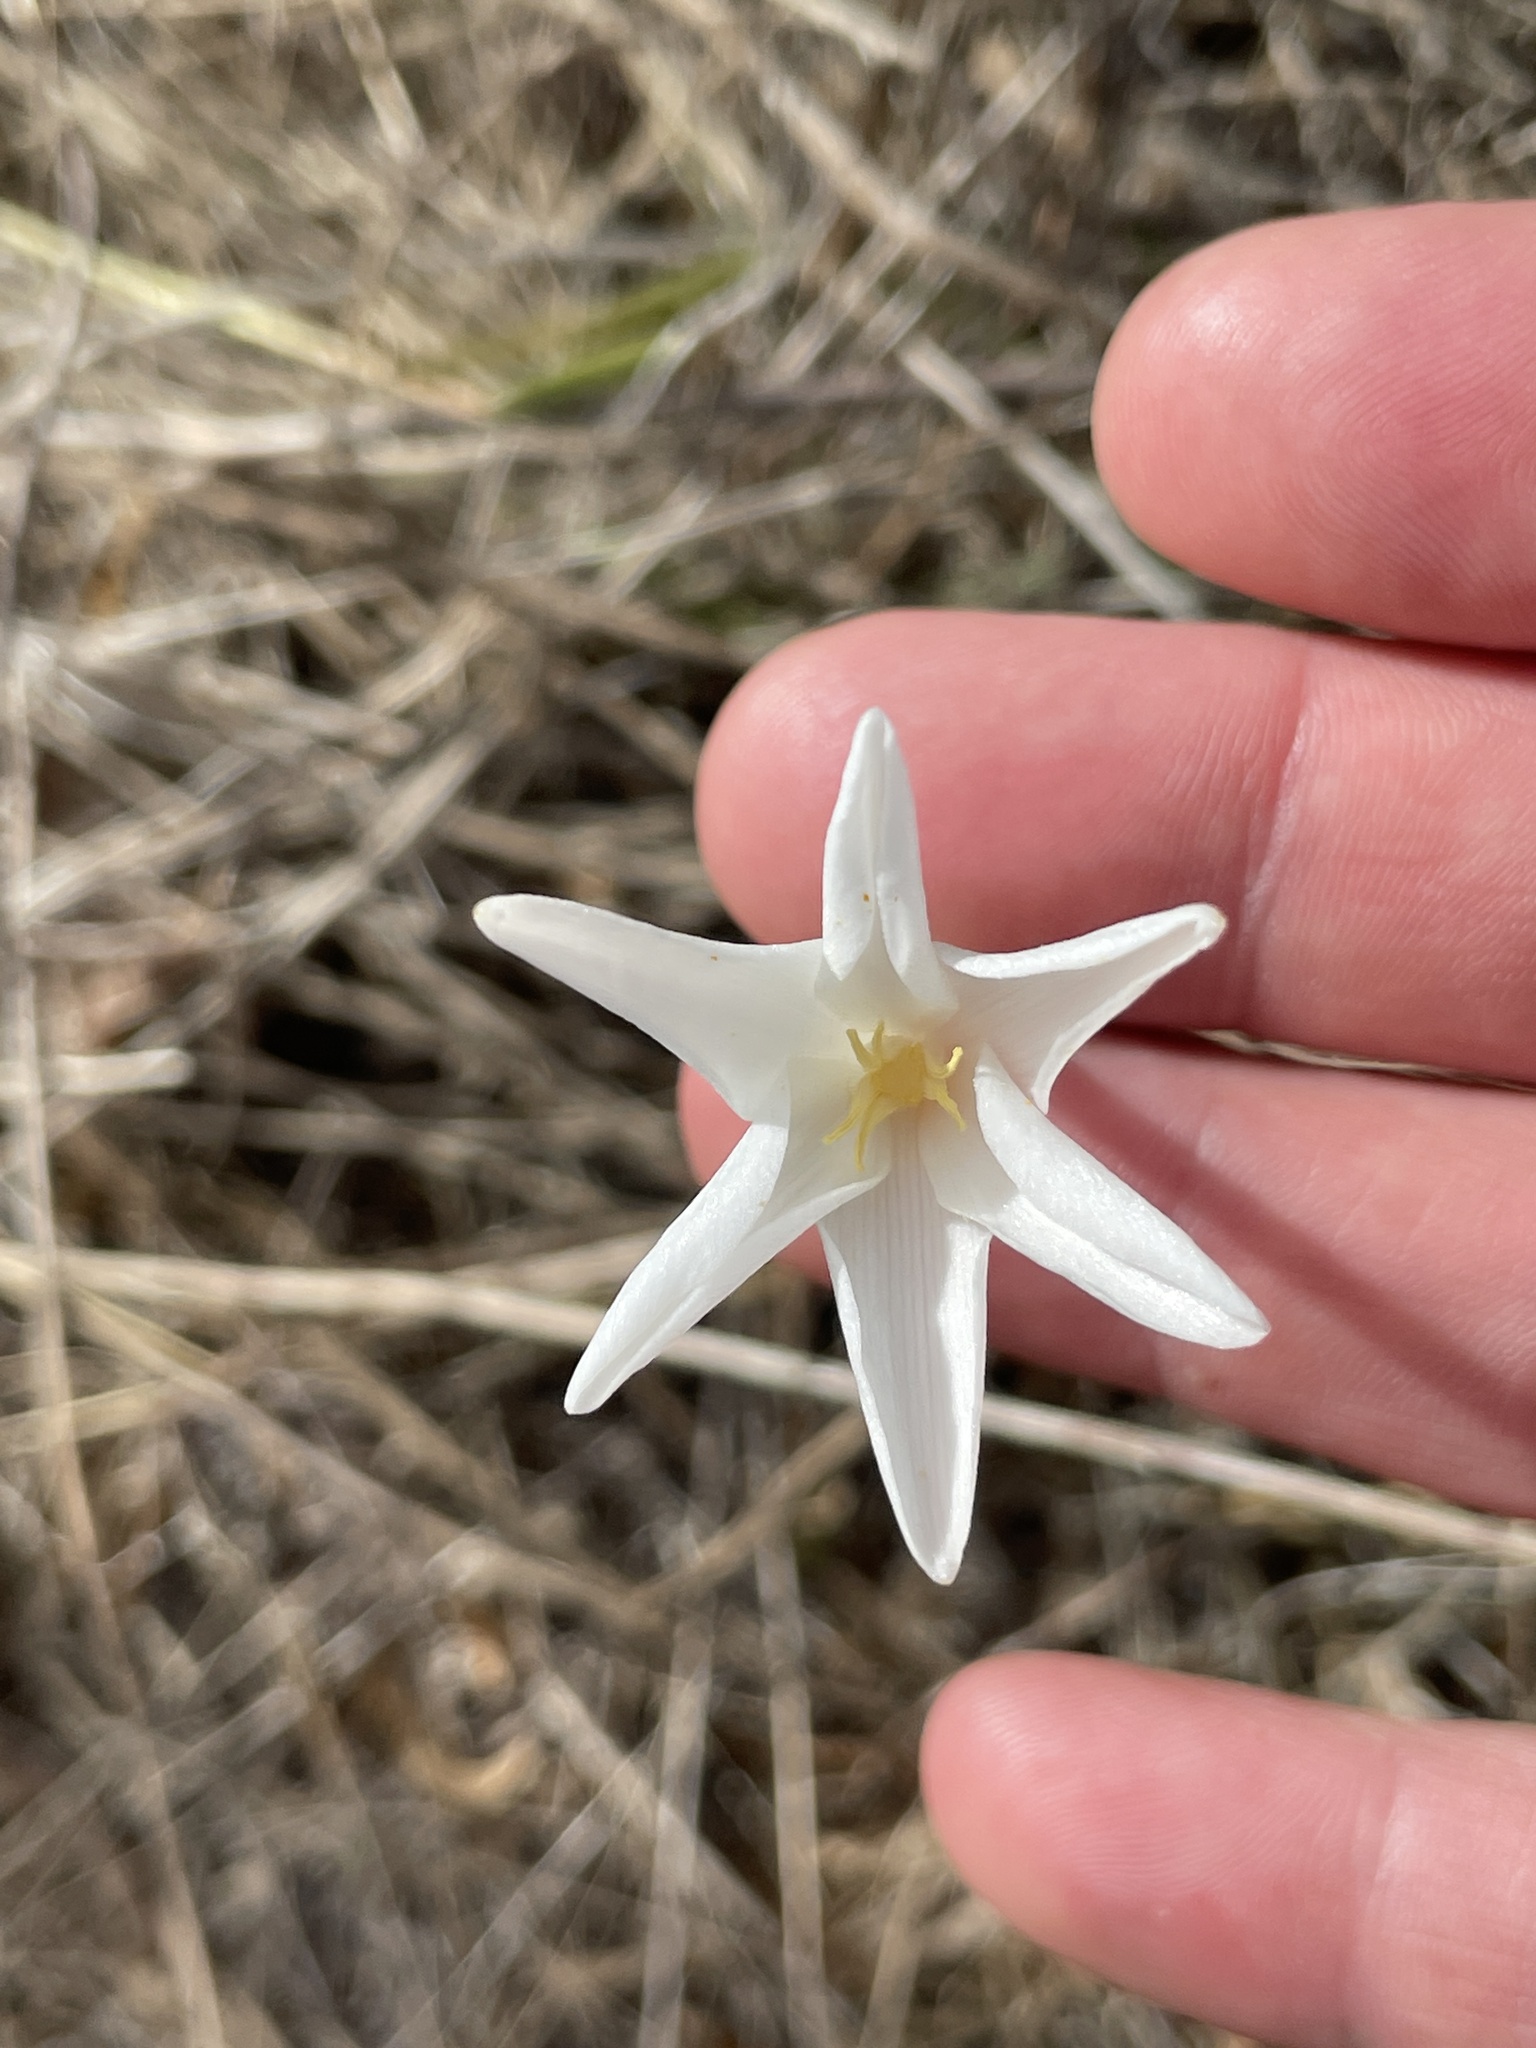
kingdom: Plantae
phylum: Tracheophyta
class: Liliopsida
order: Asparagales
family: Amaryllidaceae
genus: Zephyranthes
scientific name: Zephyranthes chlorosolen
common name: Evening rain-lily
